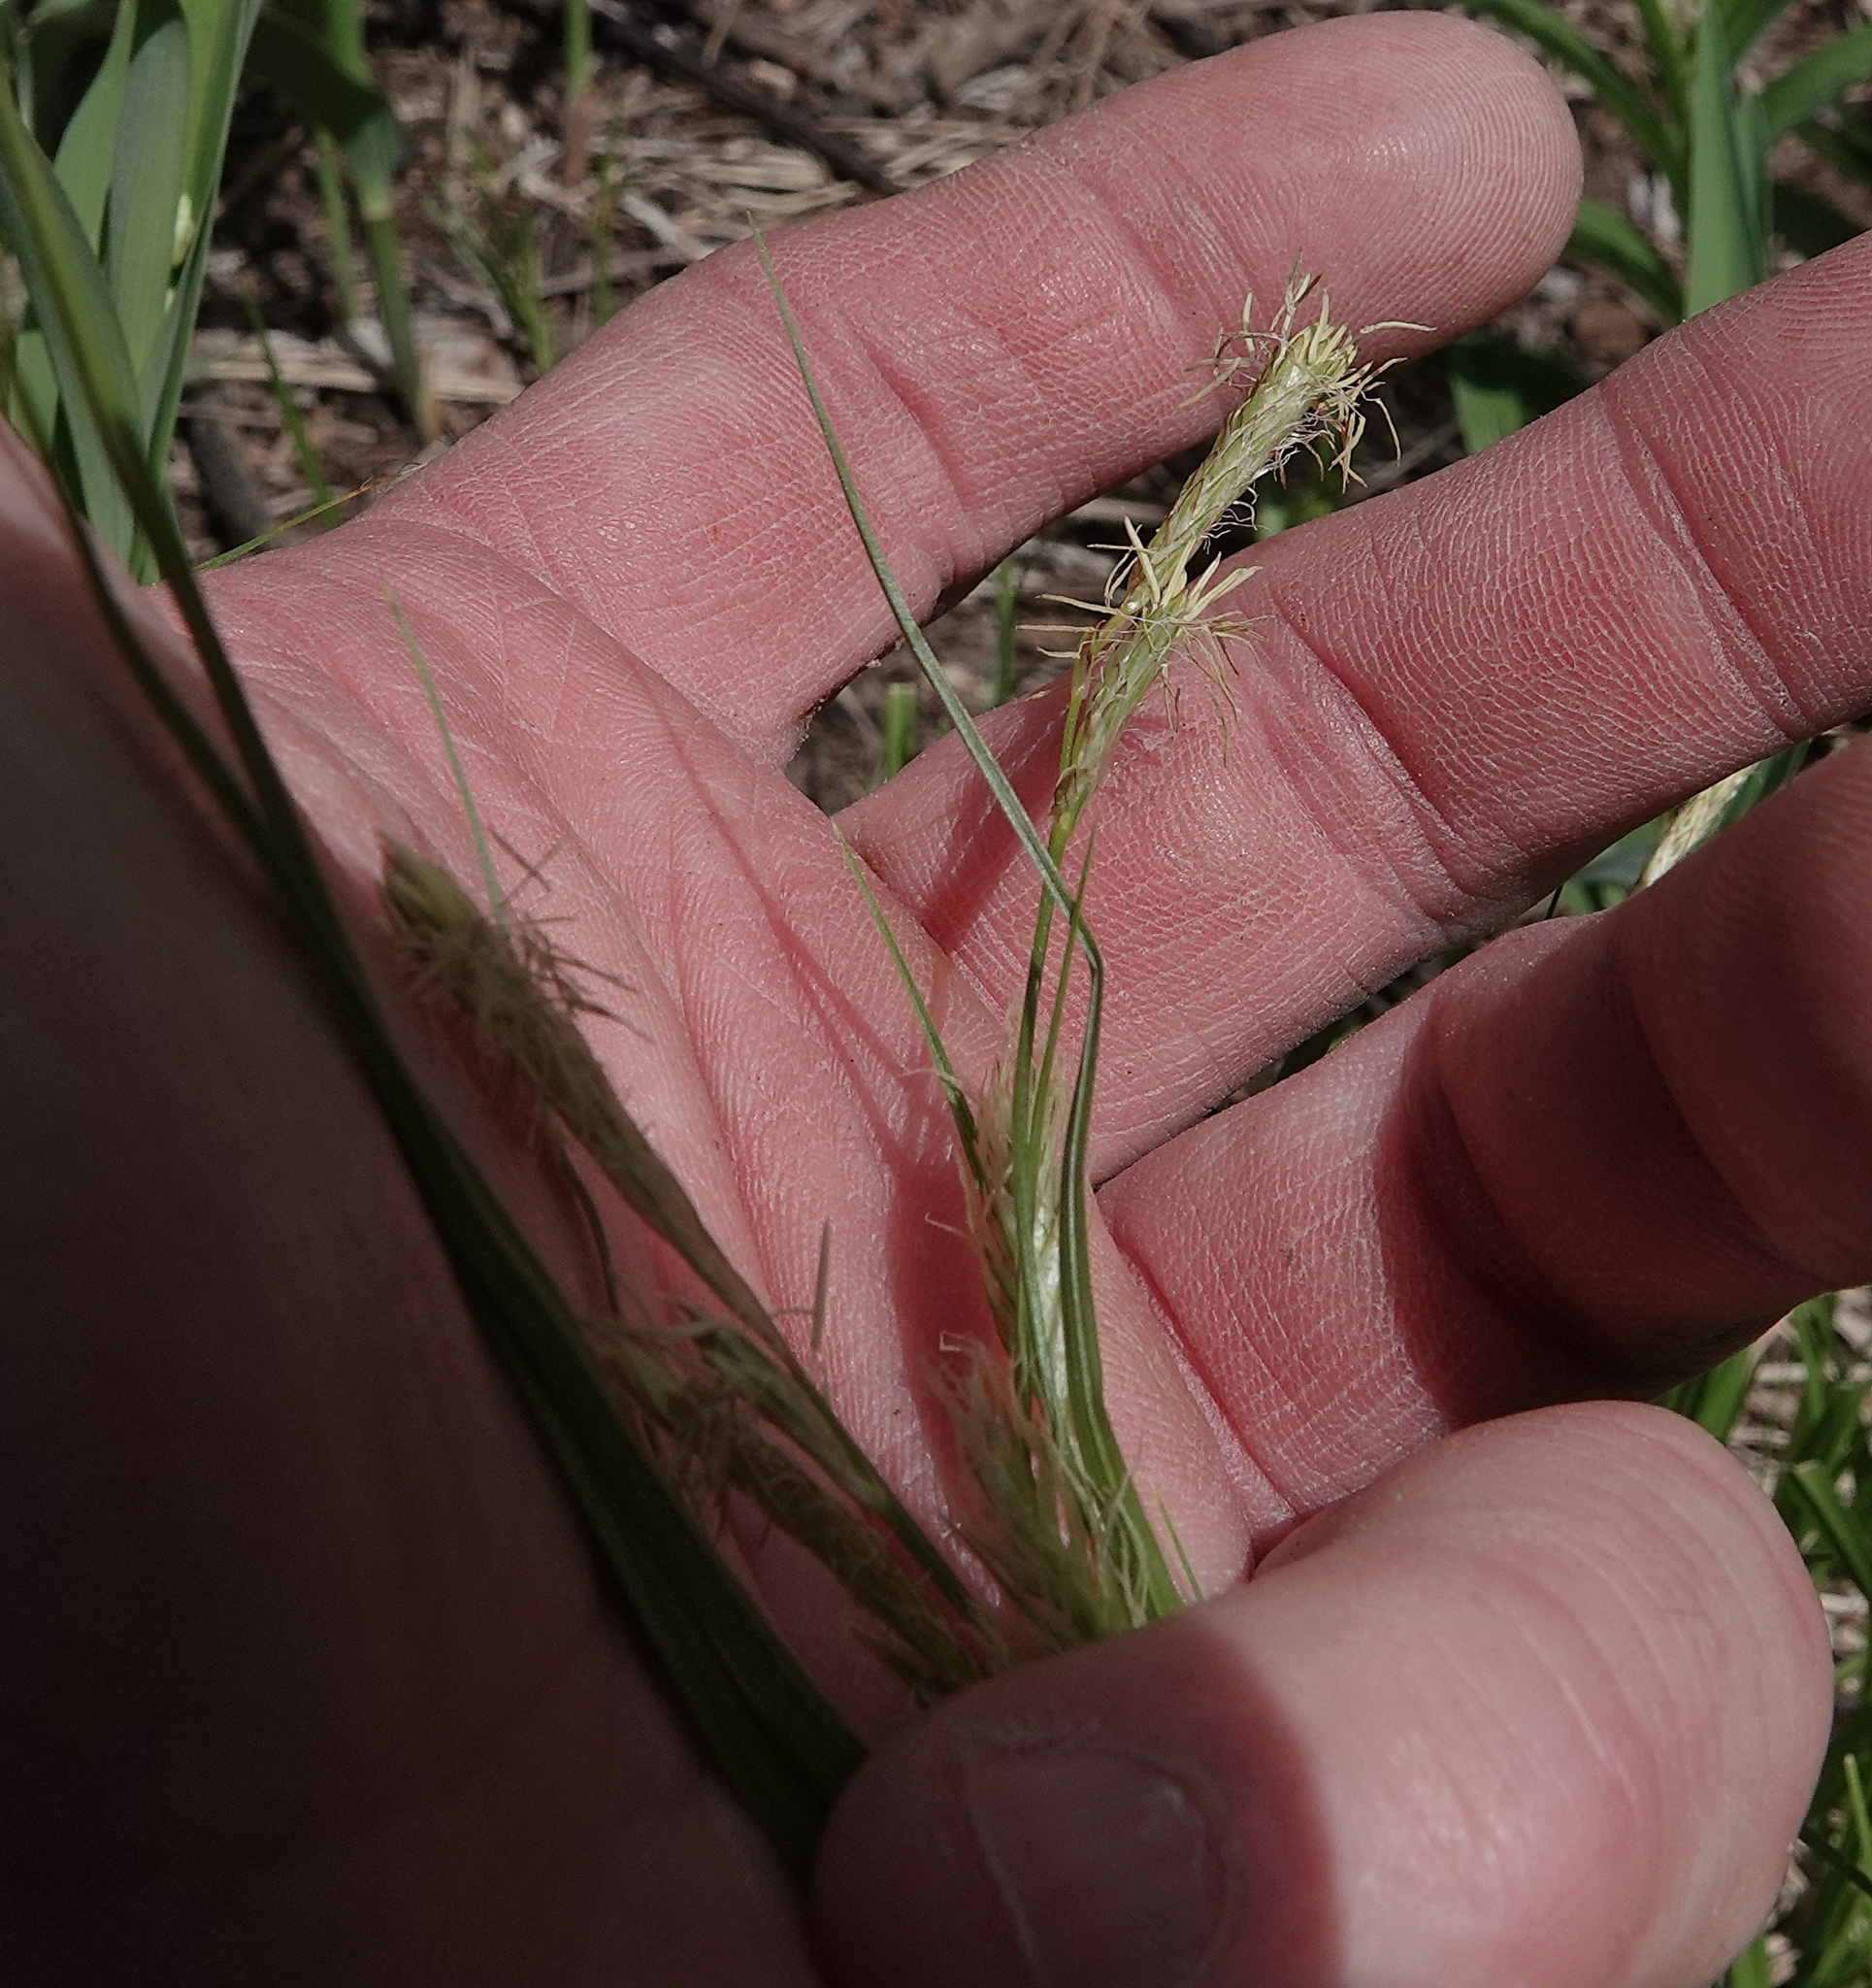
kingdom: Plantae
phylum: Tracheophyta
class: Liliopsida
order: Poales
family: Cyperaceae
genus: Carex
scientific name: Carex sprengelii
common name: Long-beaked sedge
